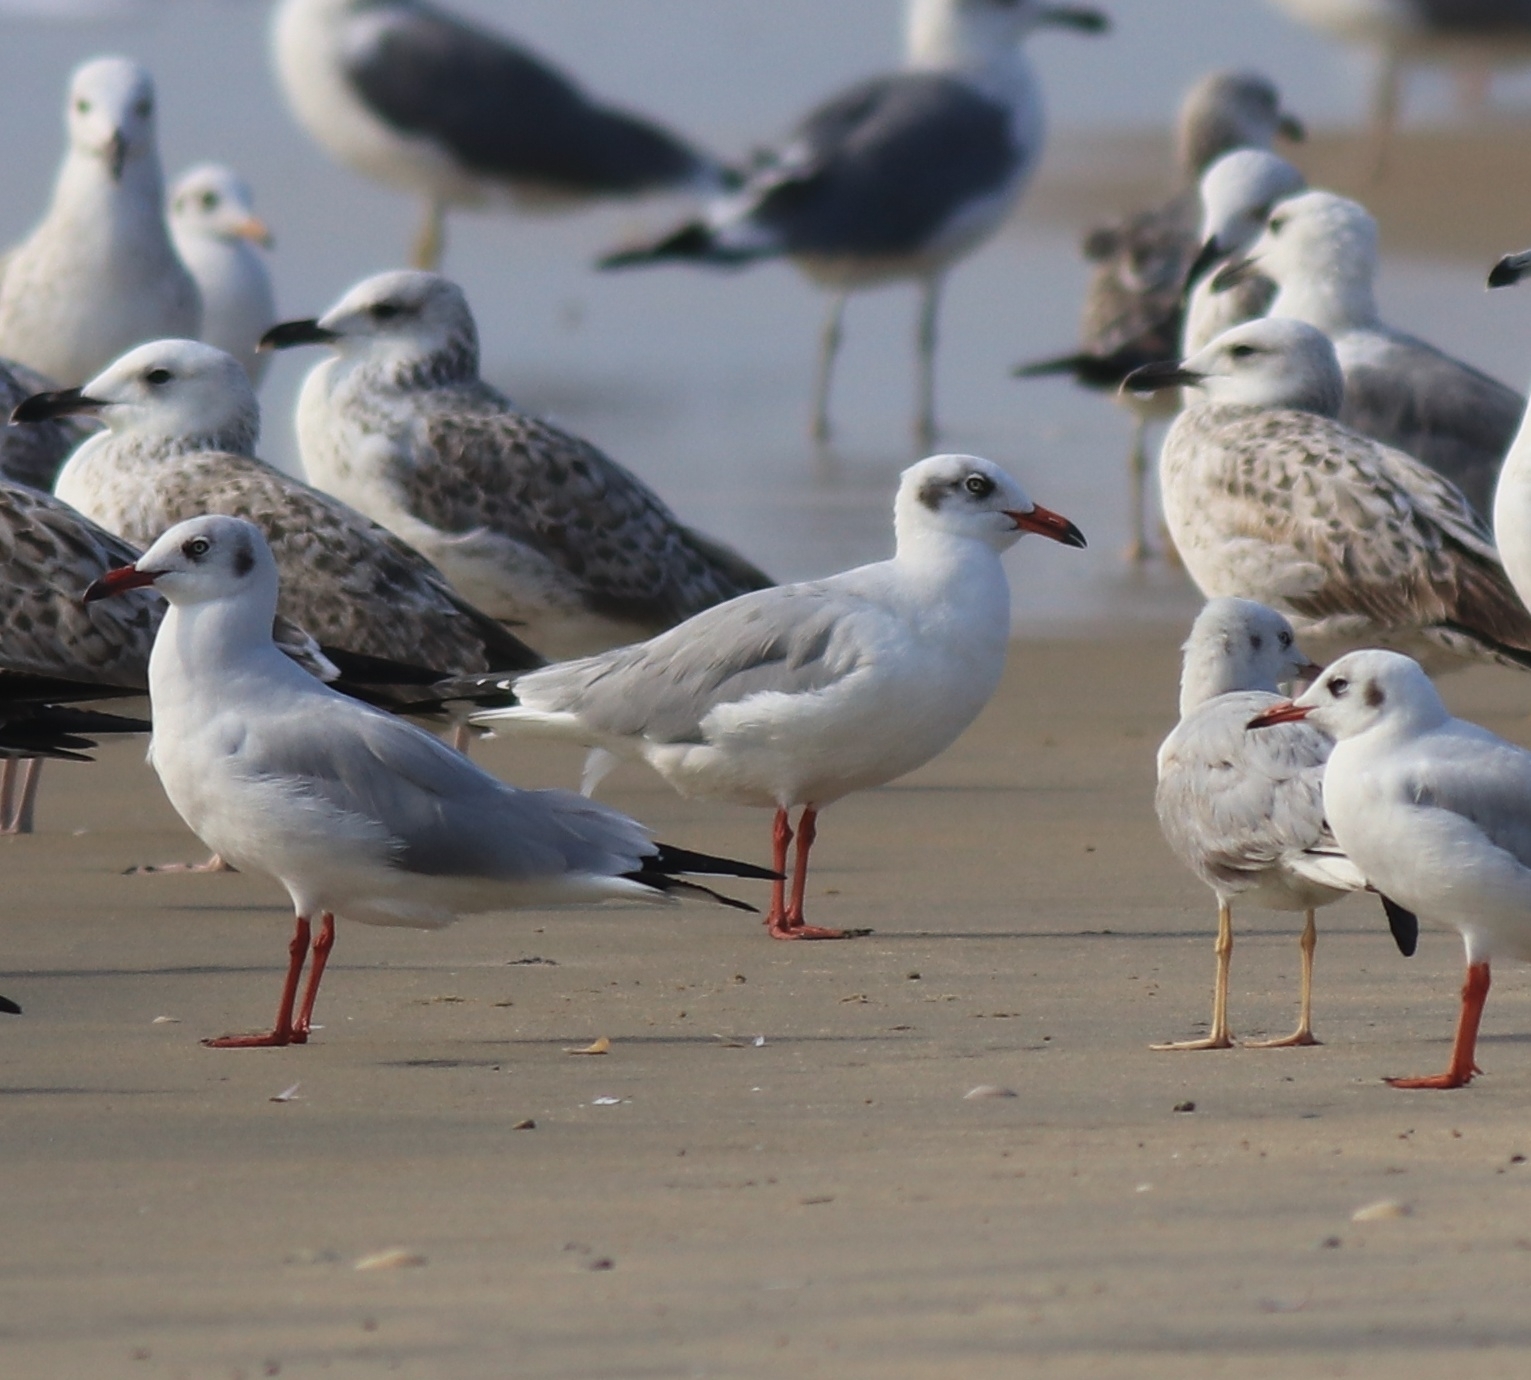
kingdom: Animalia
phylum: Chordata
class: Aves
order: Charadriiformes
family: Laridae
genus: Chroicocephalus
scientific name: Chroicocephalus brunnicephalus
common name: Brown-headed gull
